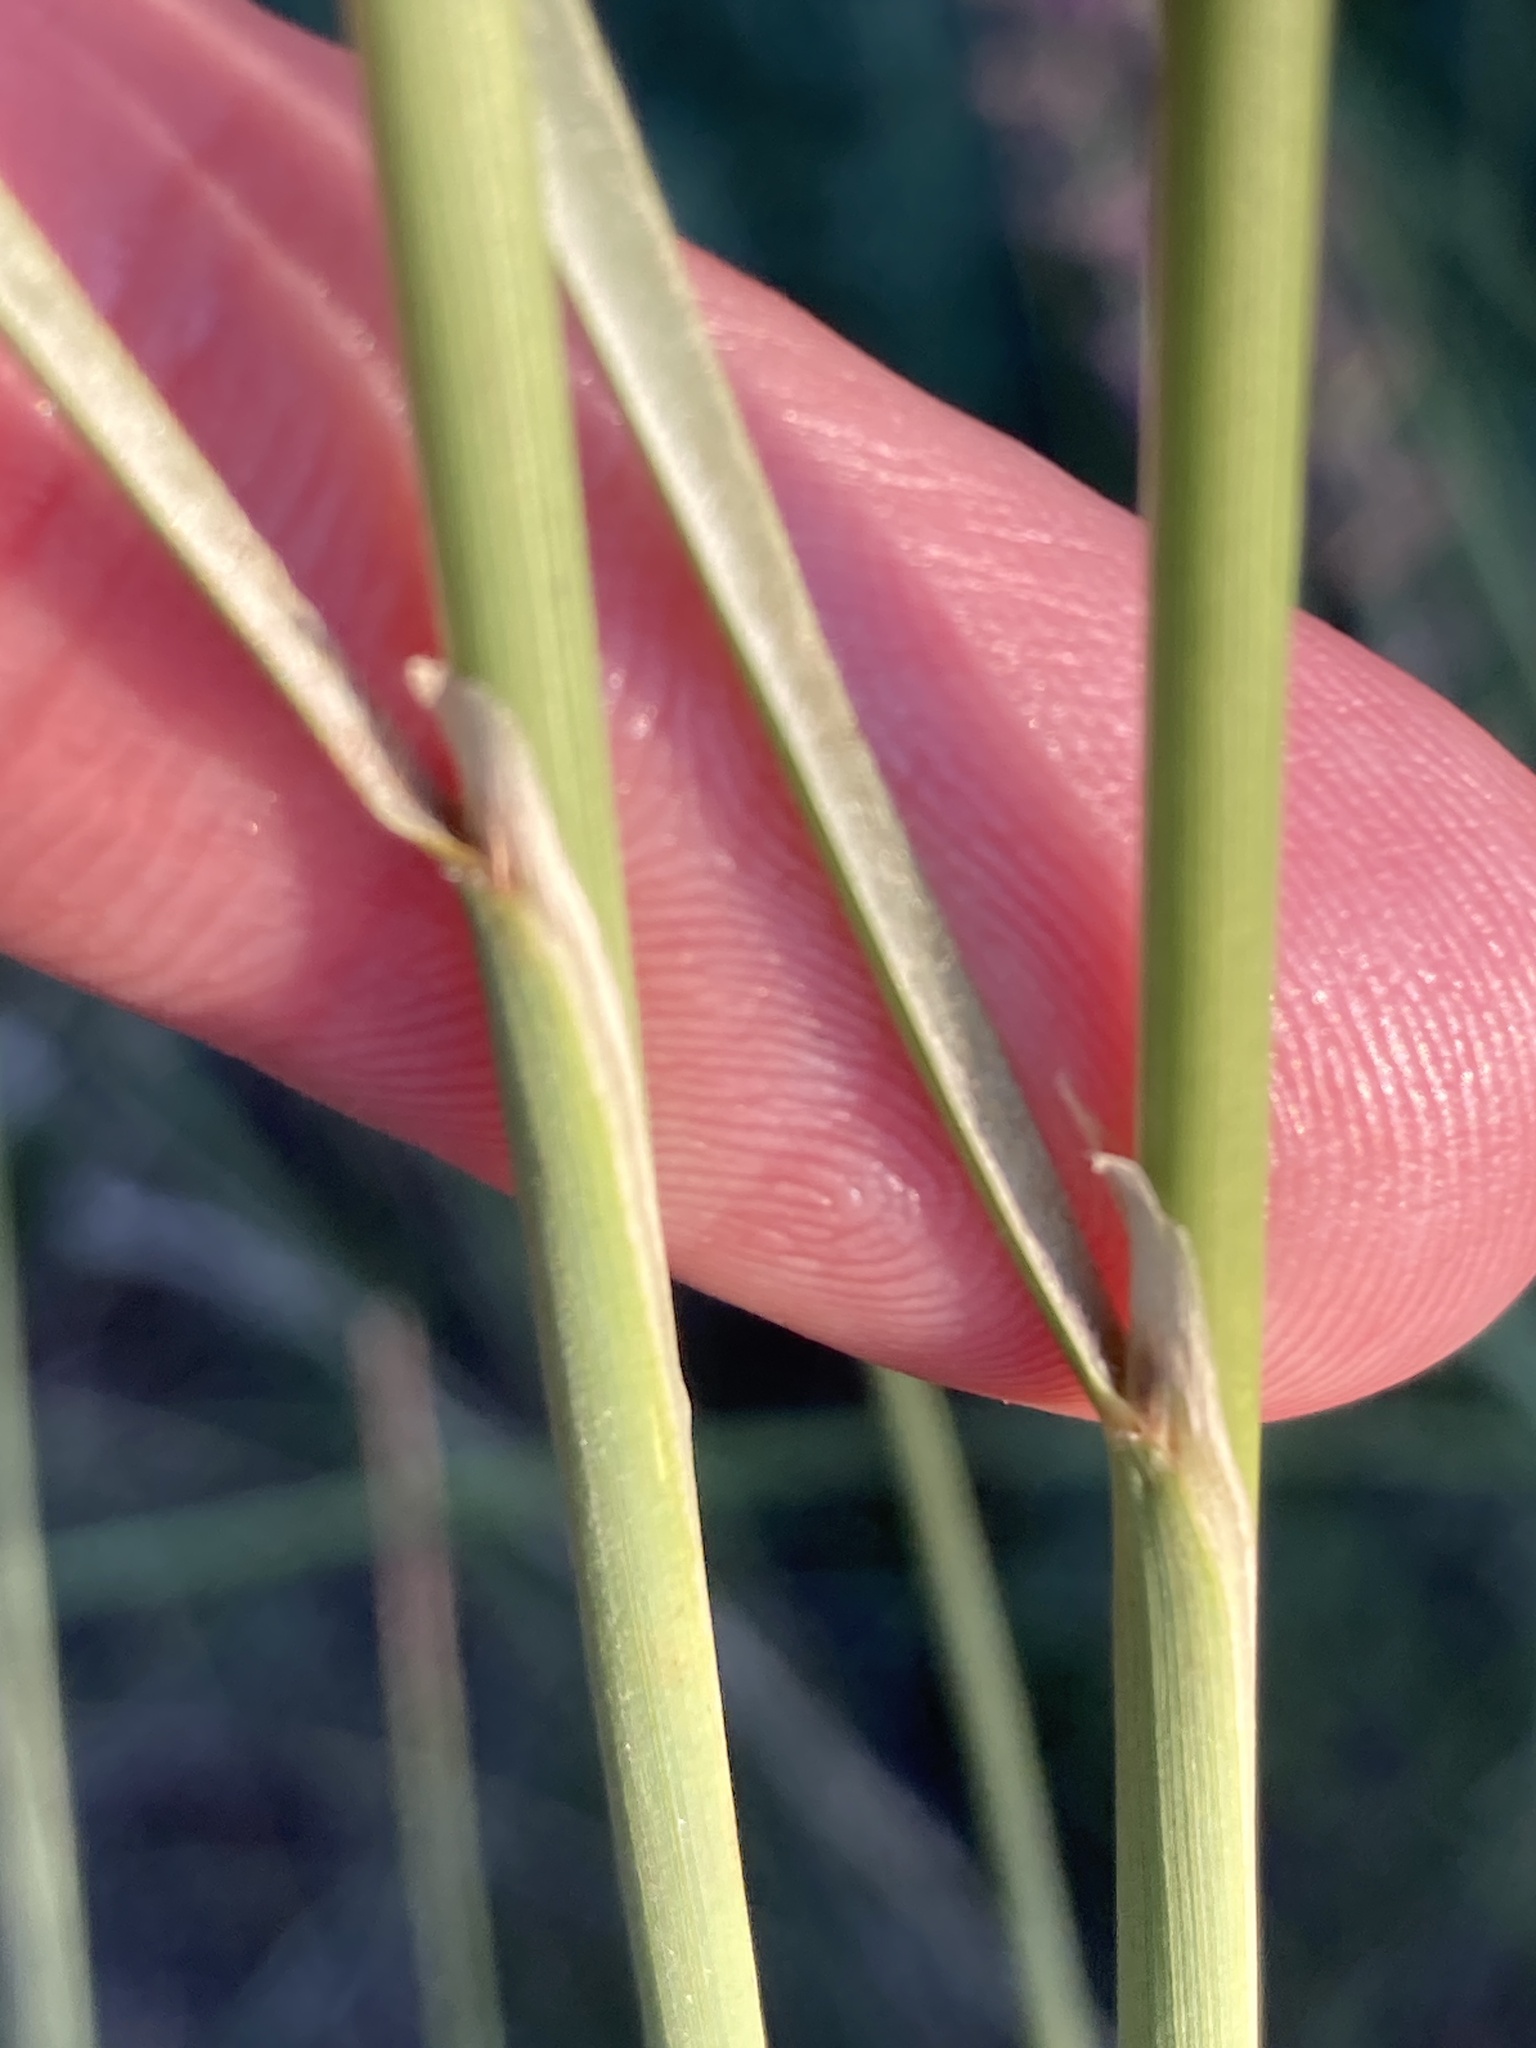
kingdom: Plantae
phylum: Tracheophyta
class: Liliopsida
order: Poales
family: Poaceae
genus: Stipa
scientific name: Stipa capillata
